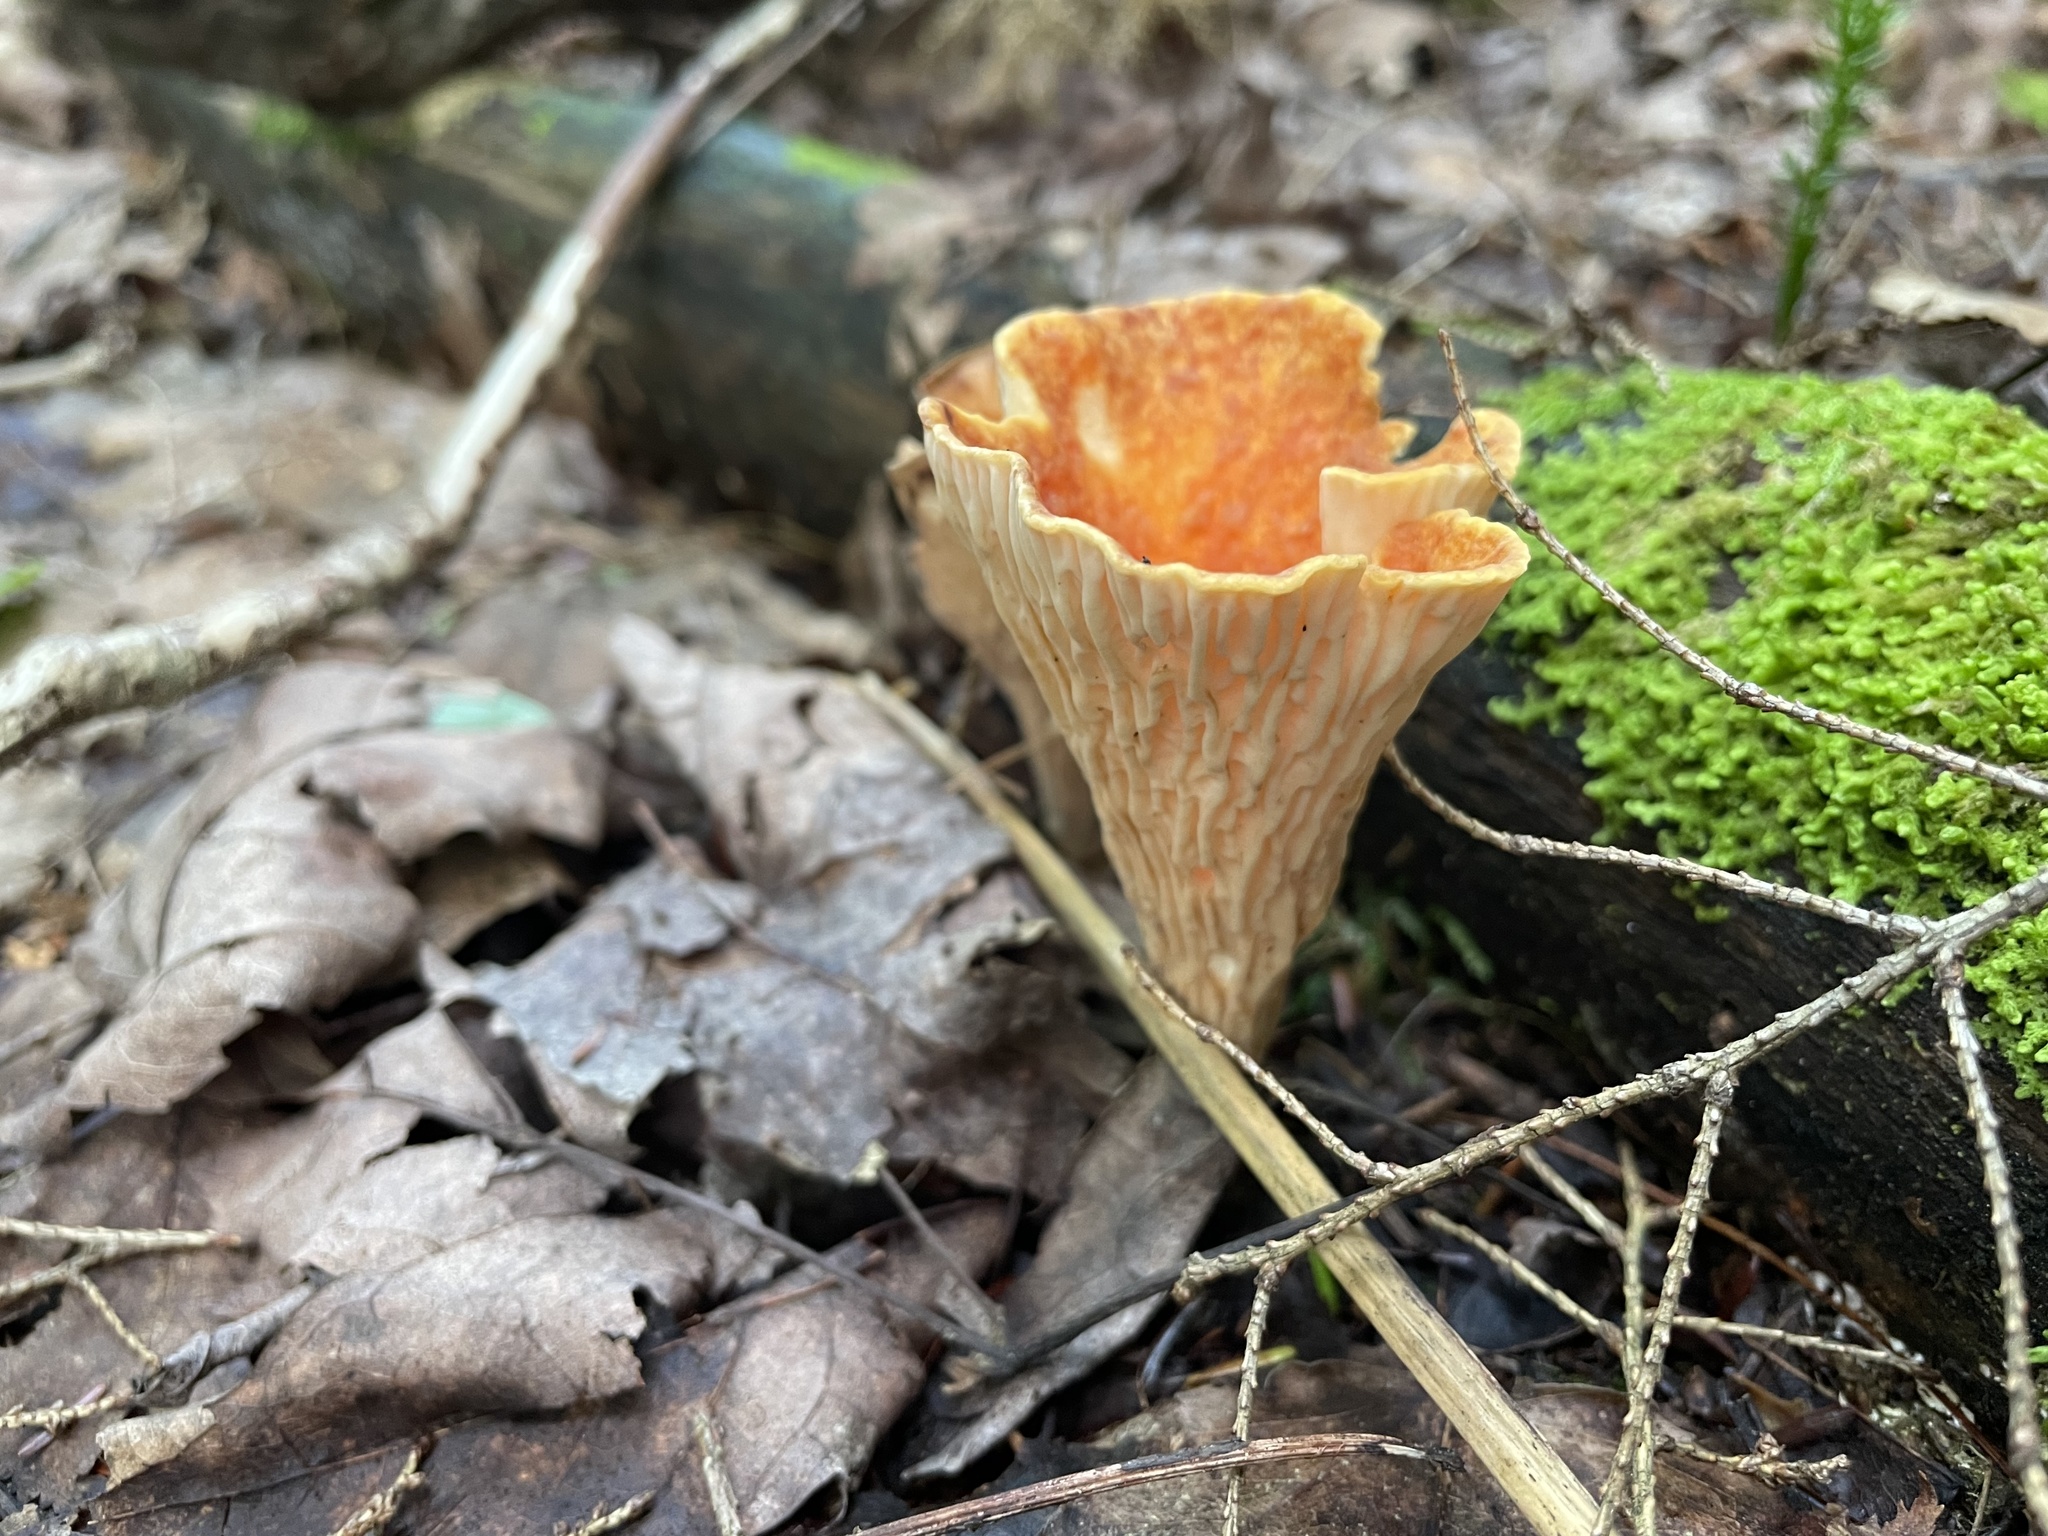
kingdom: Fungi
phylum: Basidiomycota
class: Agaricomycetes
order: Gomphales
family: Gomphaceae
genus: Turbinellus
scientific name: Turbinellus floccosus
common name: Scaly chanterelle
